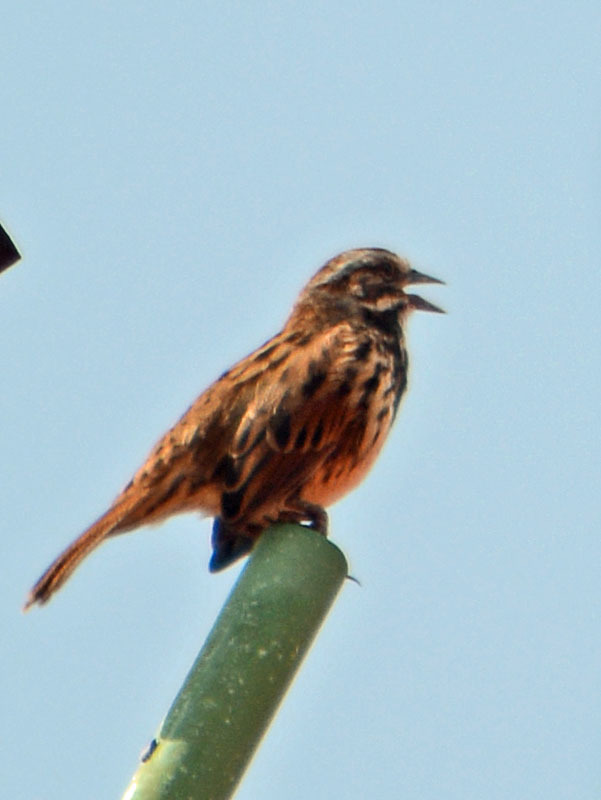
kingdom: Animalia
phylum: Chordata
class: Aves
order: Passeriformes
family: Passerellidae
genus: Melospiza
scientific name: Melospiza melodia
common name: Song sparrow
